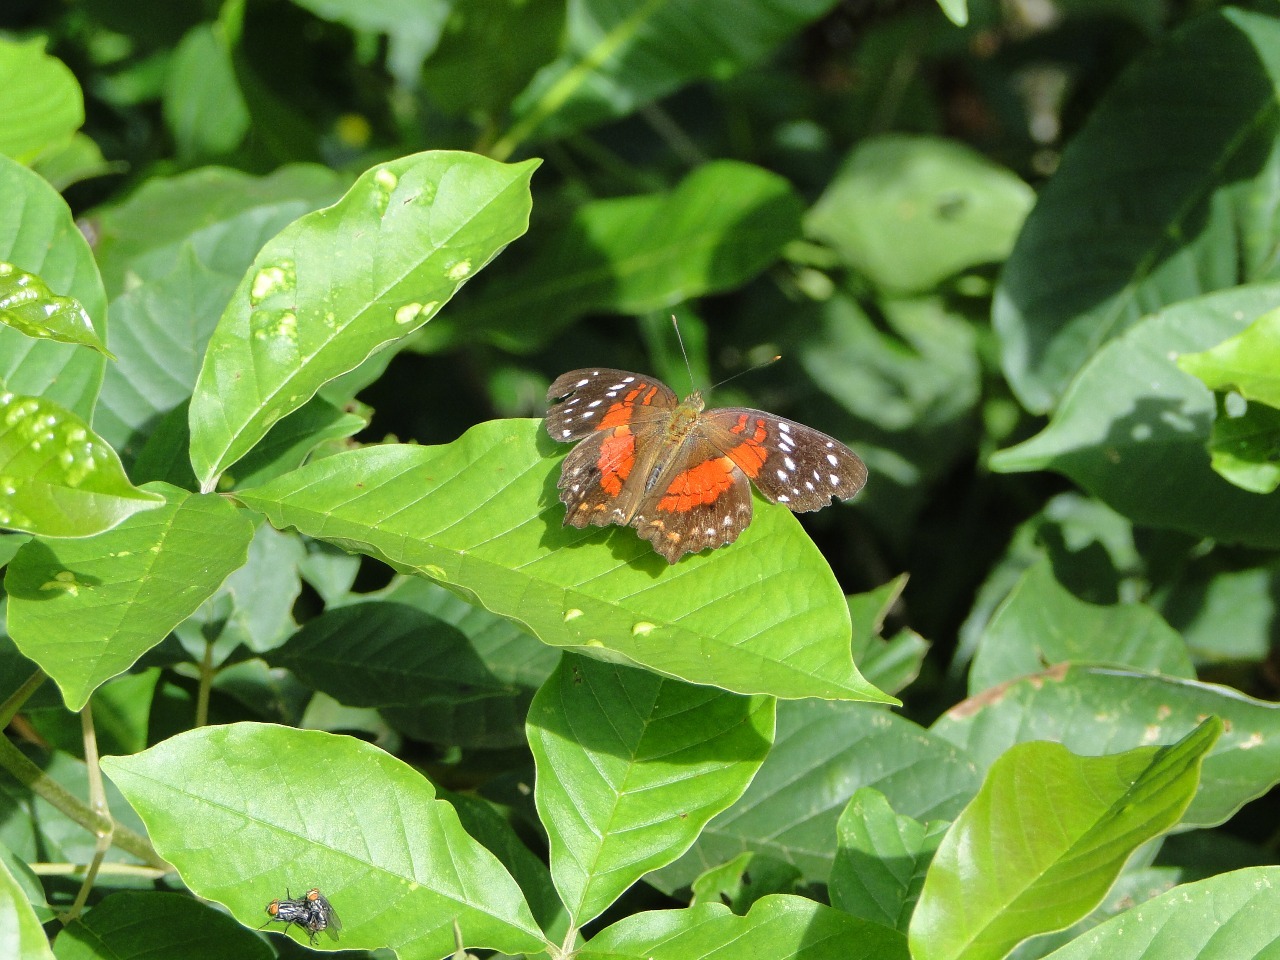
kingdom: Animalia
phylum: Arthropoda
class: Insecta
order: Lepidoptera
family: Nymphalidae
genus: Anartia
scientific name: Anartia amathea
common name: Red peacock
